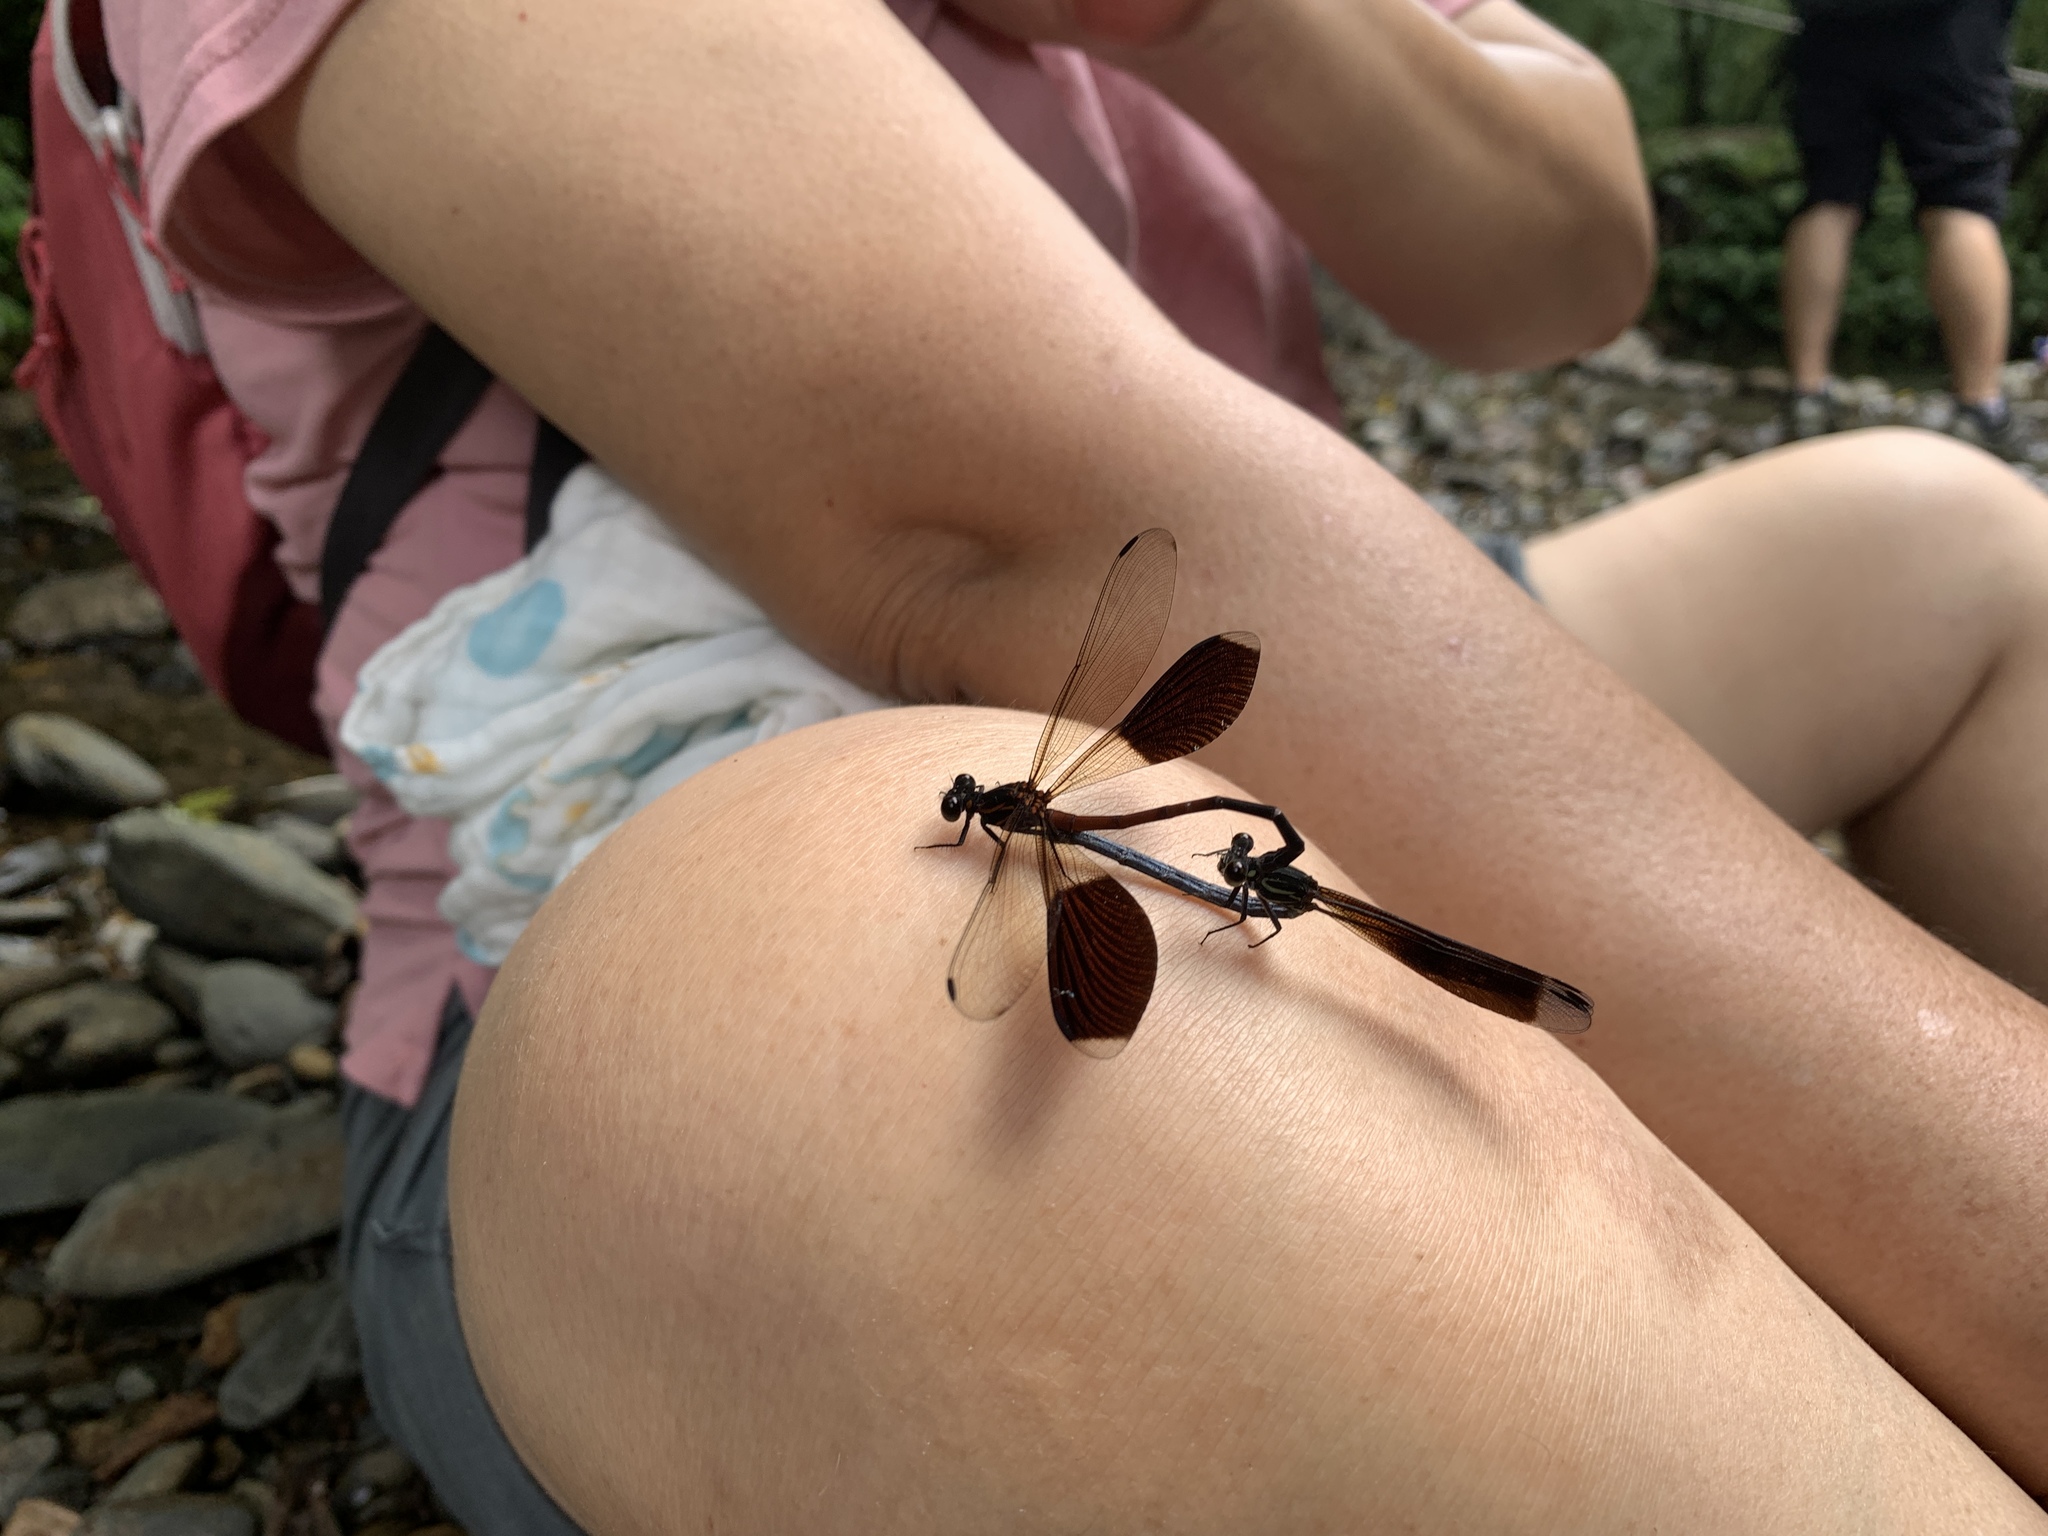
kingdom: Animalia
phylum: Arthropoda
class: Insecta
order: Odonata
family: Euphaeidae
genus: Euphaea
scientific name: Euphaea formosa
